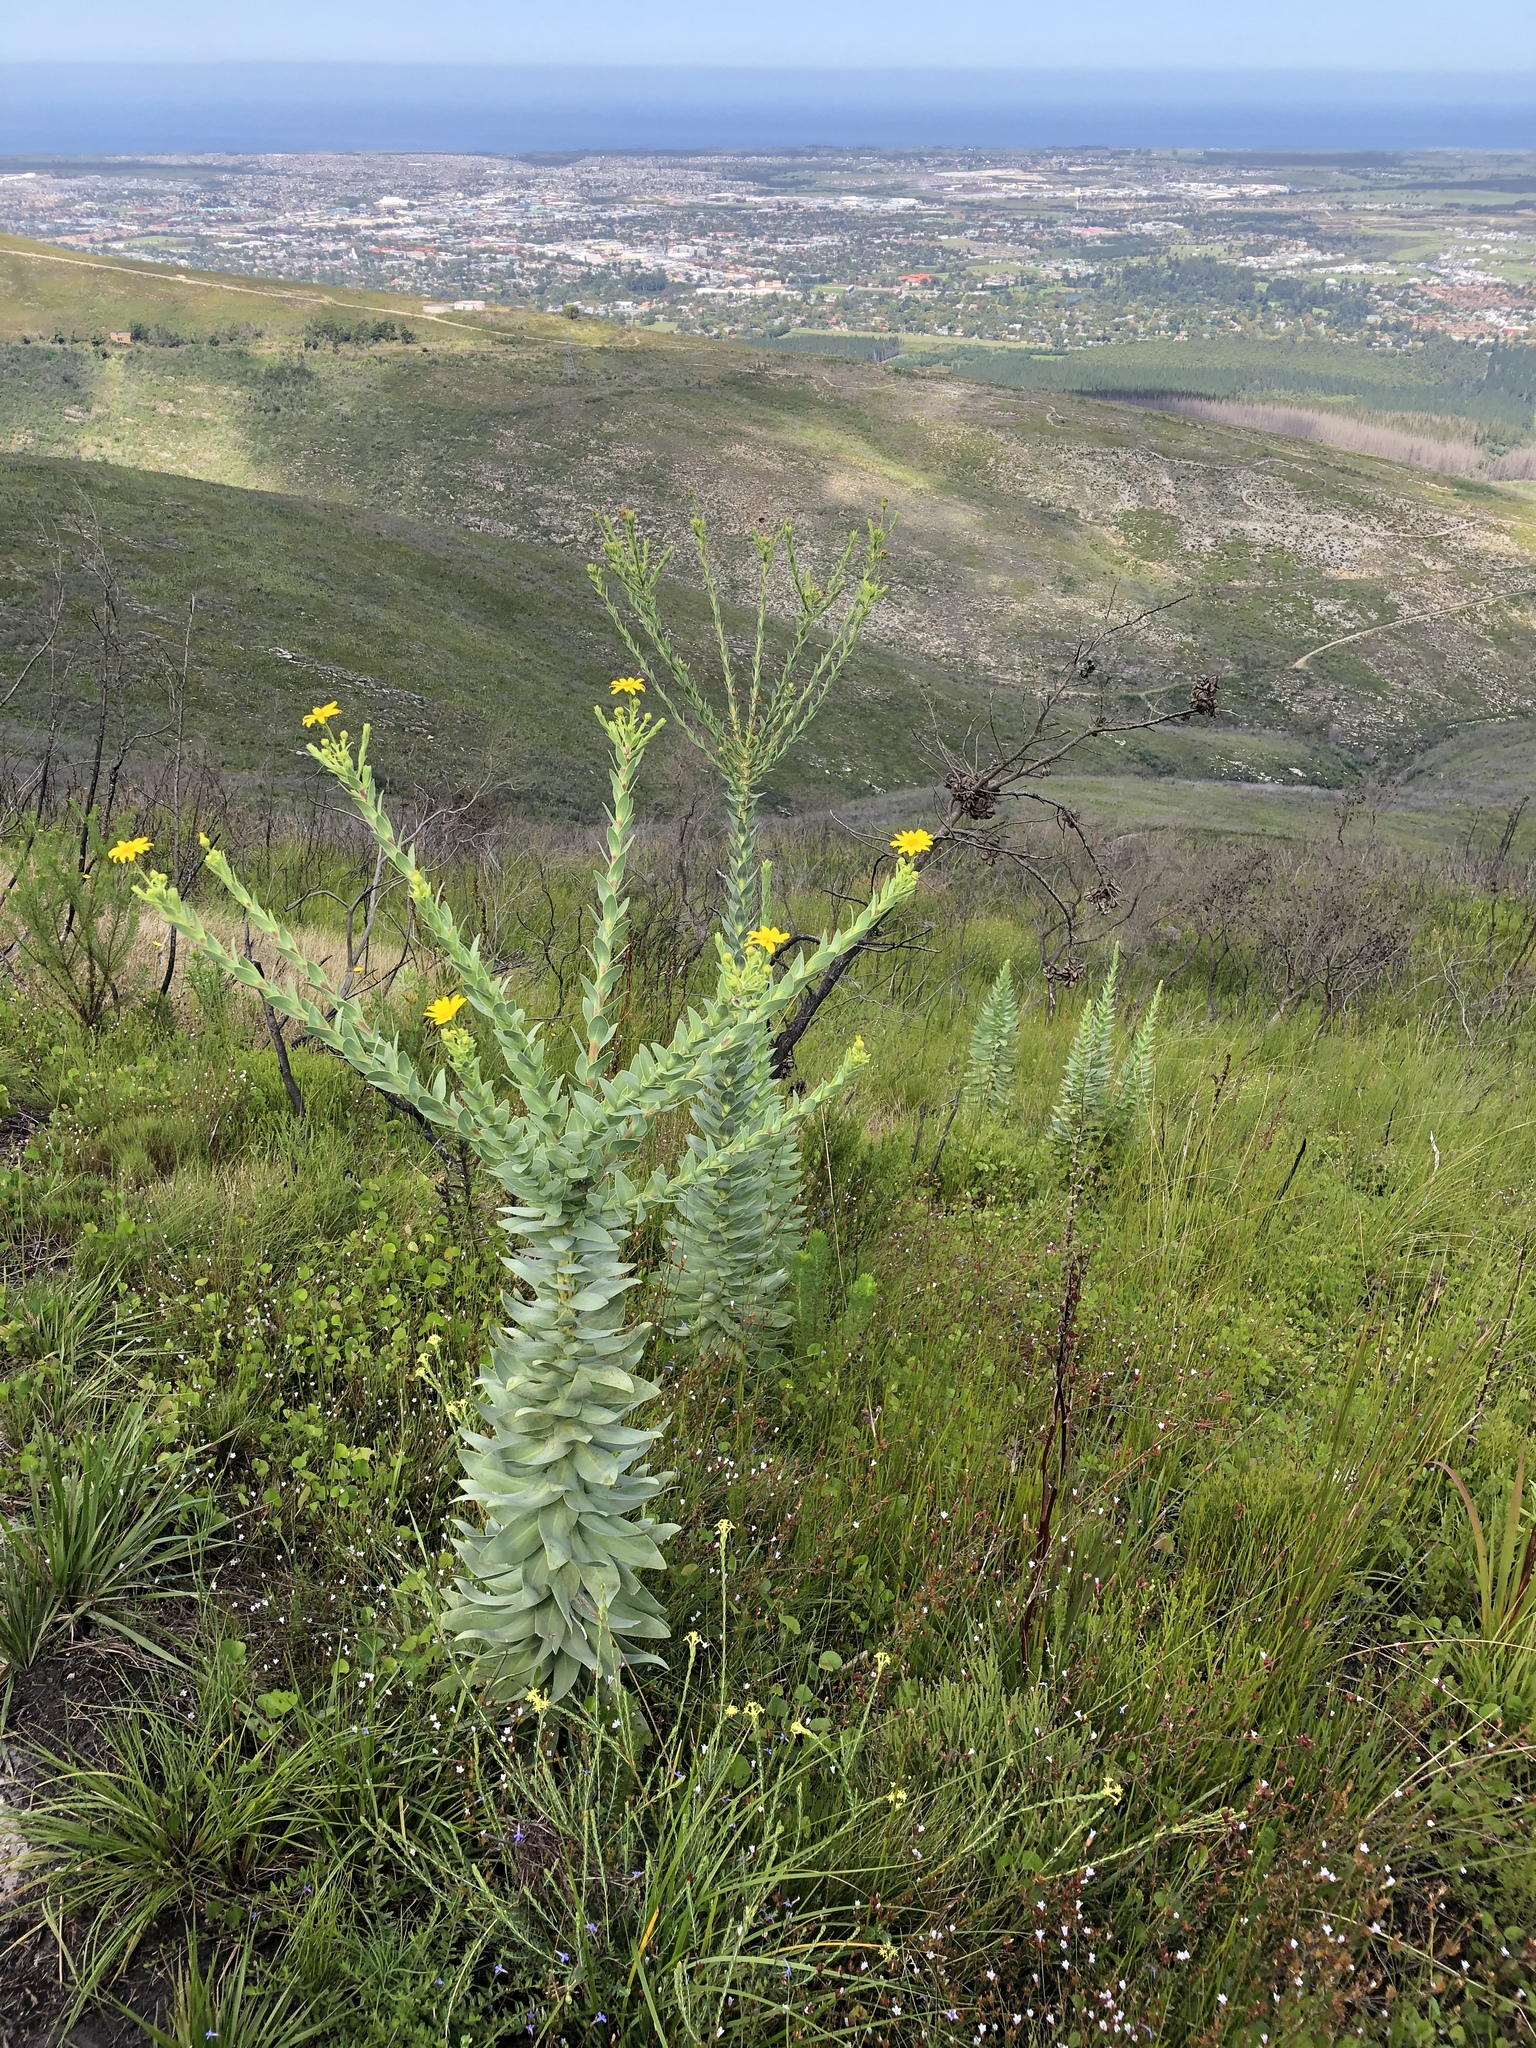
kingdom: Plantae
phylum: Tracheophyta
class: Magnoliopsida
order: Asterales
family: Asteraceae
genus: Osteospermum
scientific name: Osteospermum corymbosum
